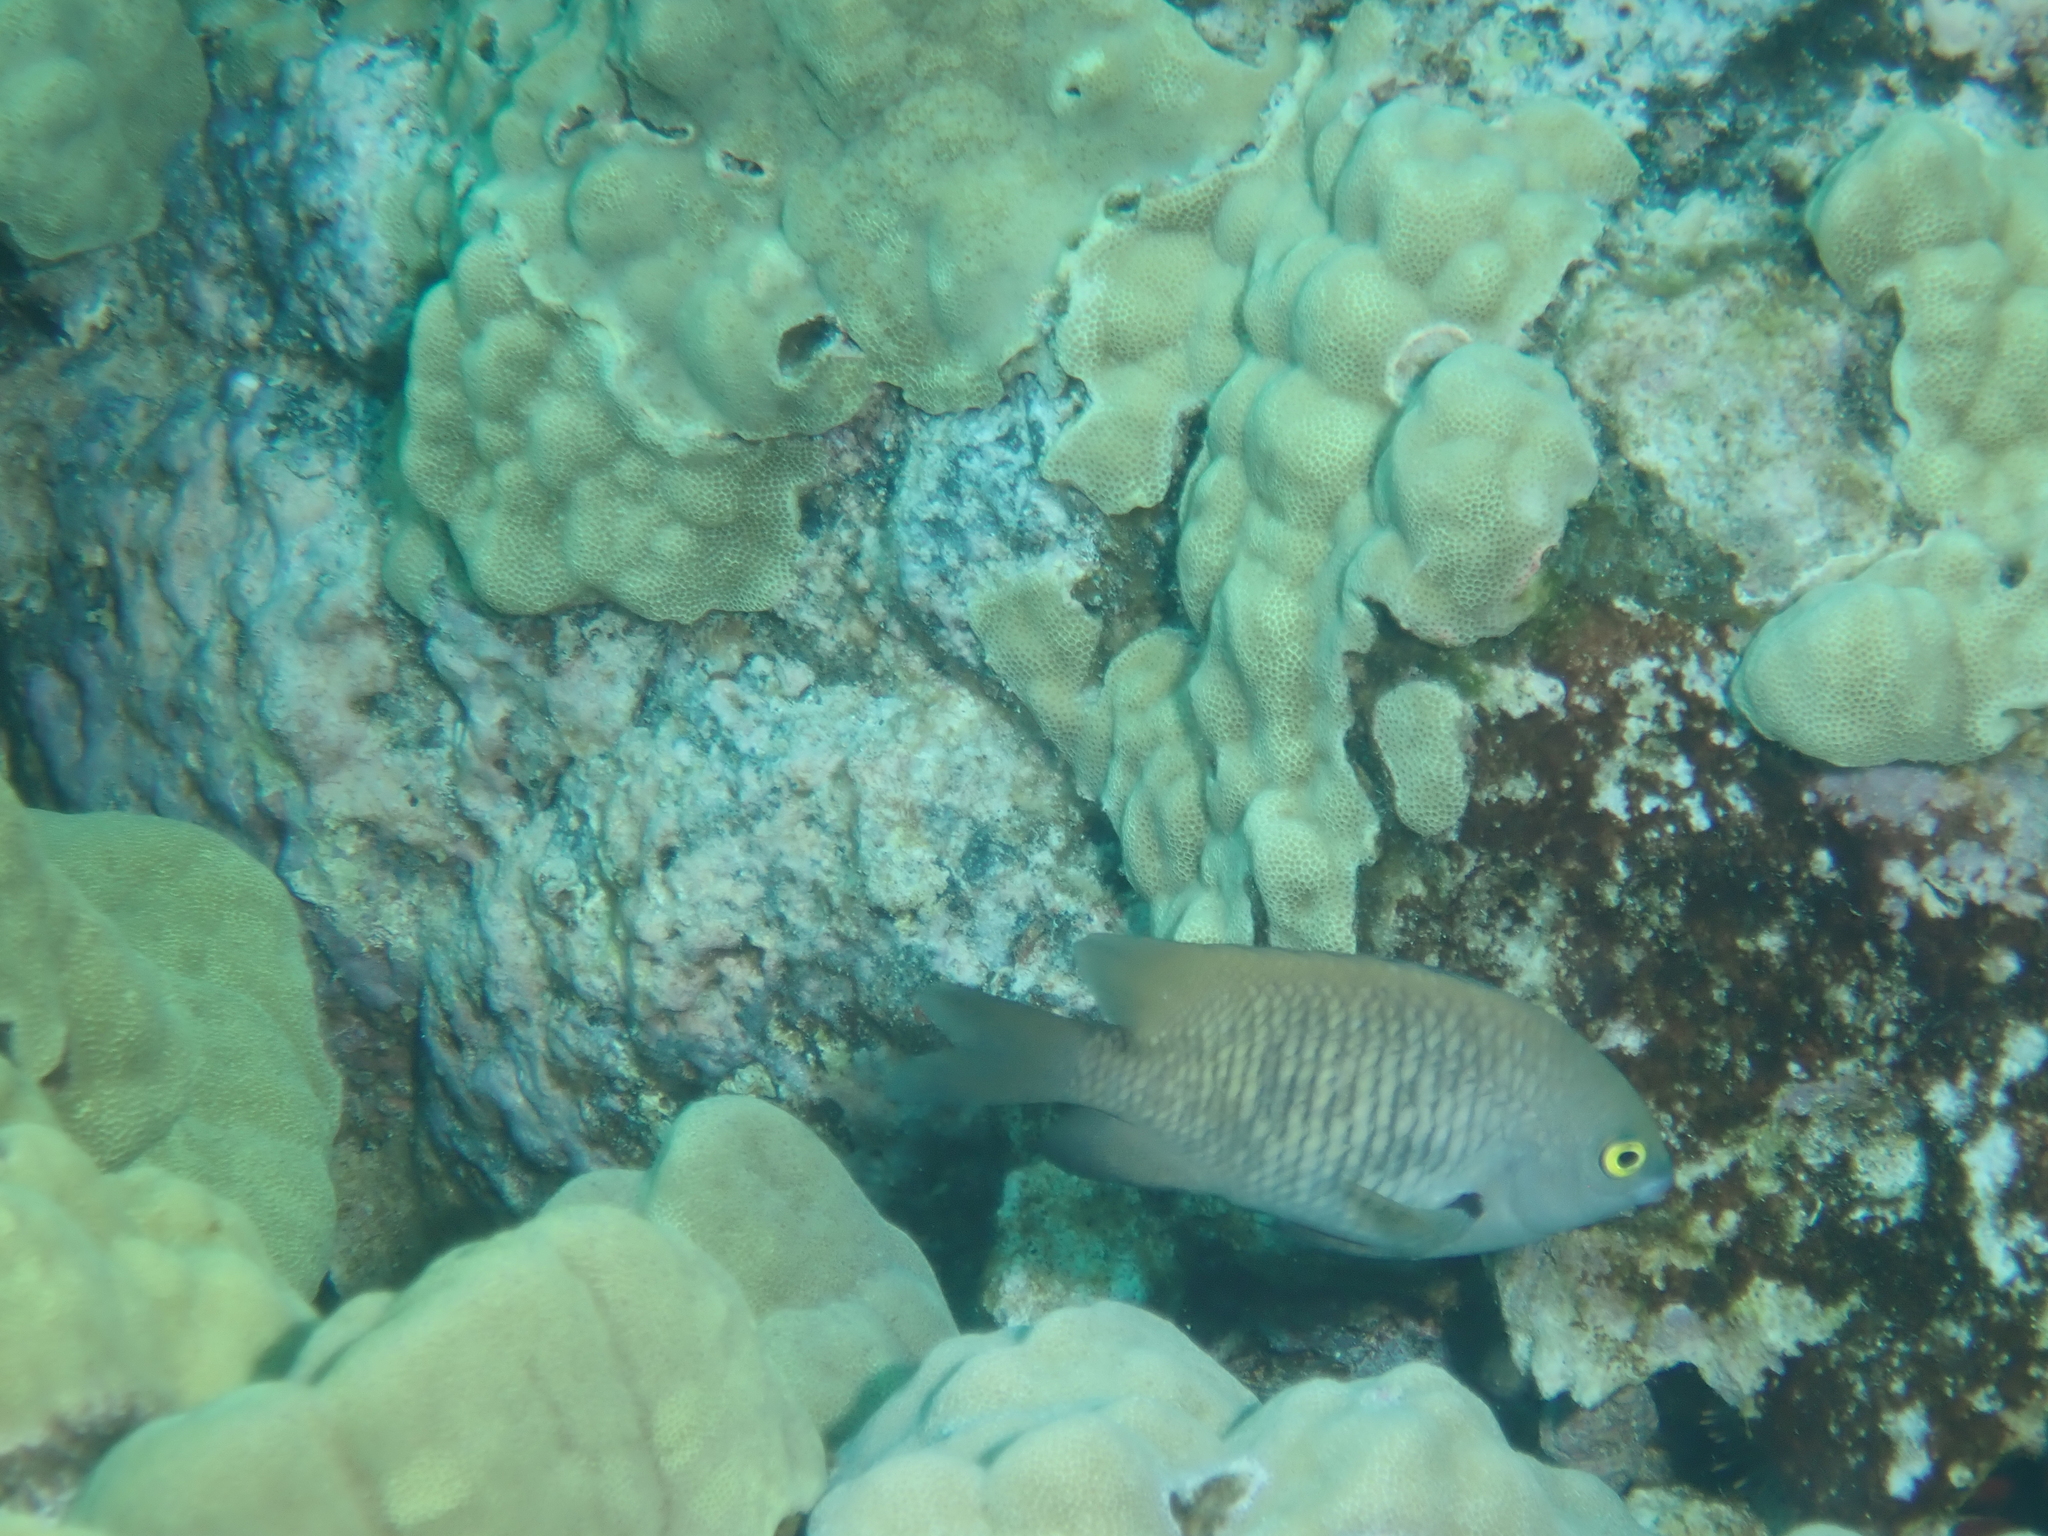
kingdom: Animalia
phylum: Chordata
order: Perciformes
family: Pomacentridae
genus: Stegastes
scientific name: Stegastes fasciolatus
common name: Pacific gregory
